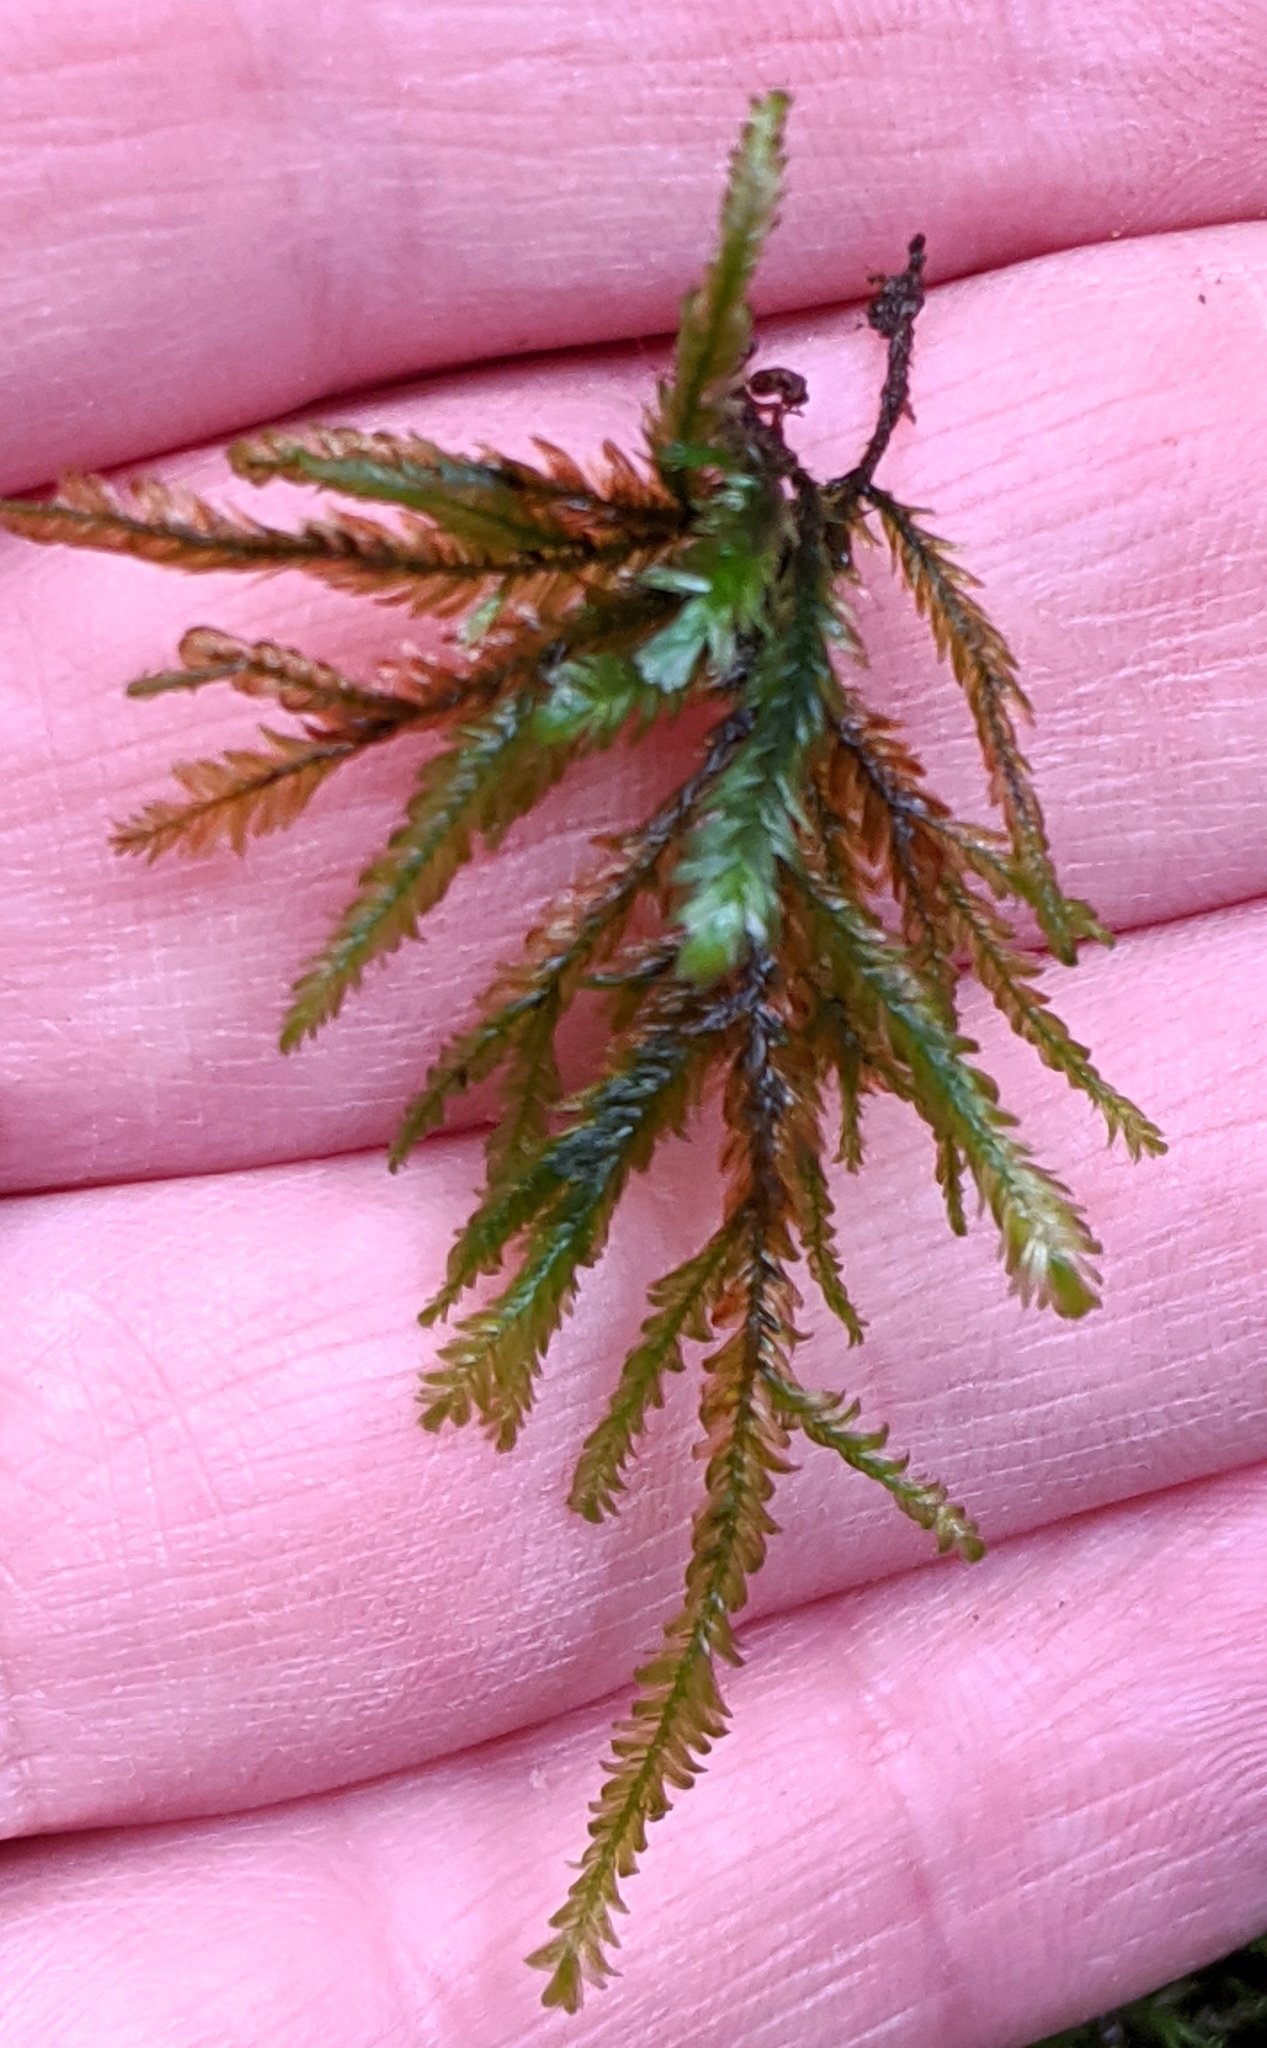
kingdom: Plantae
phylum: Bryophyta
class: Bryopsida
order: Hypnales
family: Neckeraceae
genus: Dannorrisia
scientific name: Dannorrisia bigelovii
